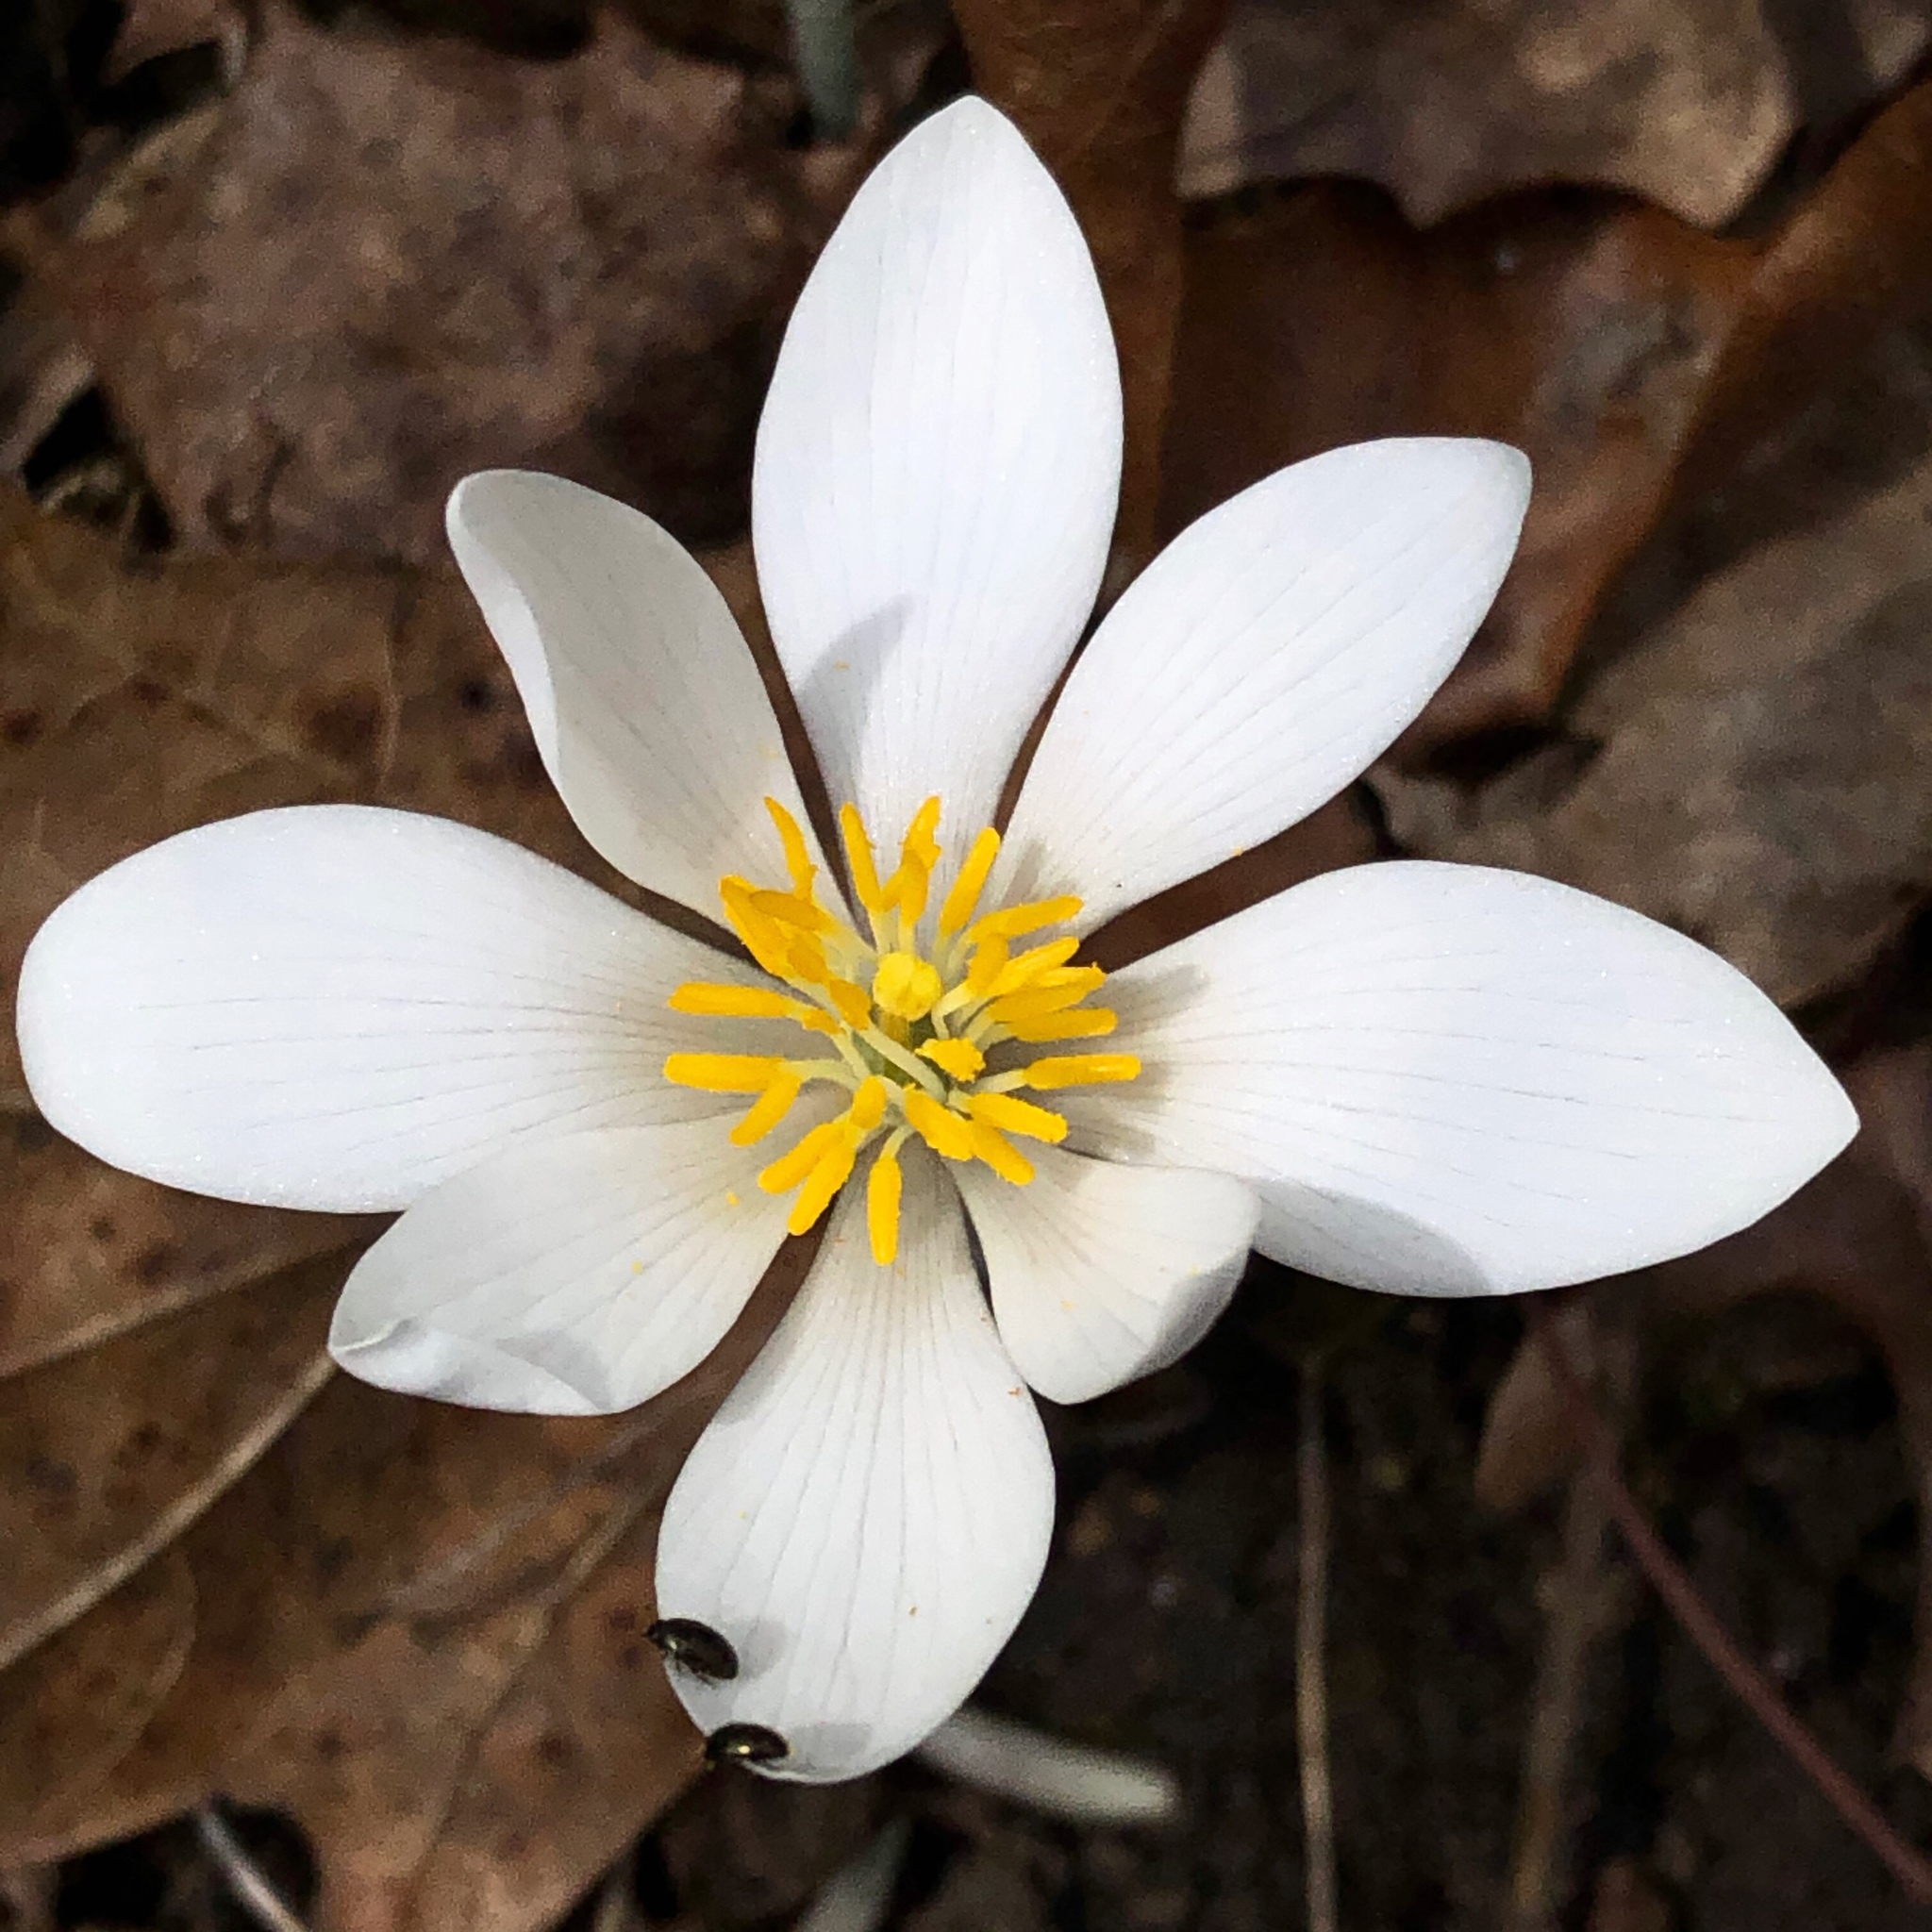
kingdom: Plantae
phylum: Tracheophyta
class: Magnoliopsida
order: Ranunculales
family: Papaveraceae
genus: Sanguinaria
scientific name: Sanguinaria canadensis
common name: Bloodroot
